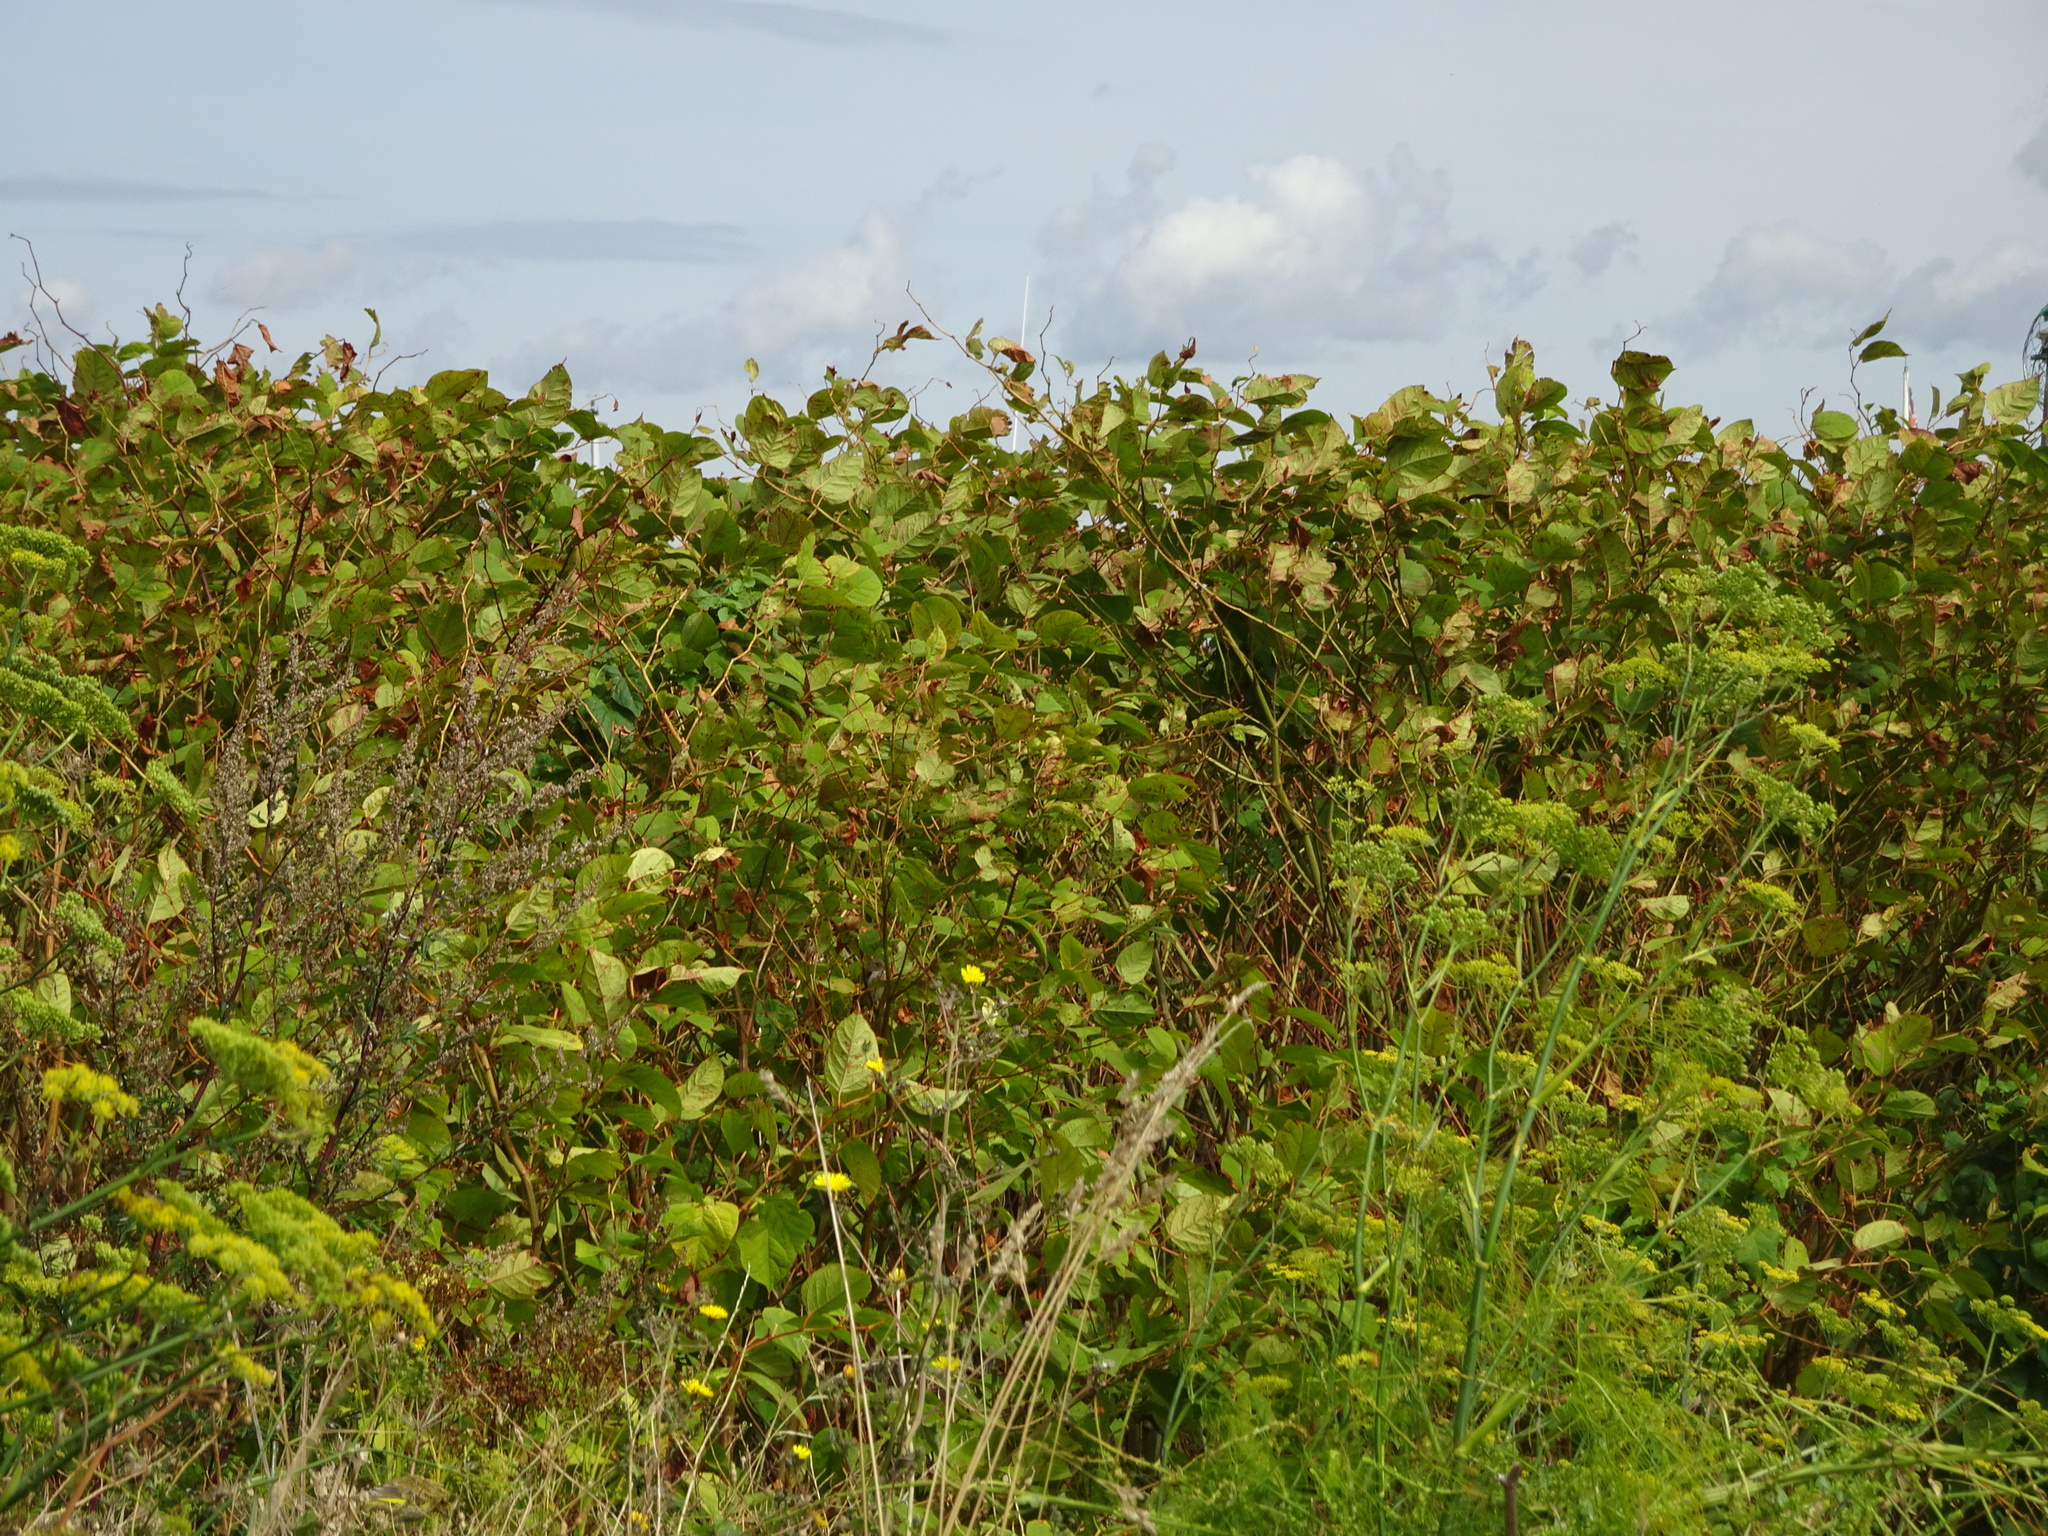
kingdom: Plantae
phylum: Tracheophyta
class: Magnoliopsida
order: Caryophyllales
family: Polygonaceae
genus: Reynoutria
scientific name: Reynoutria japonica
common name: Japanese knotweed
